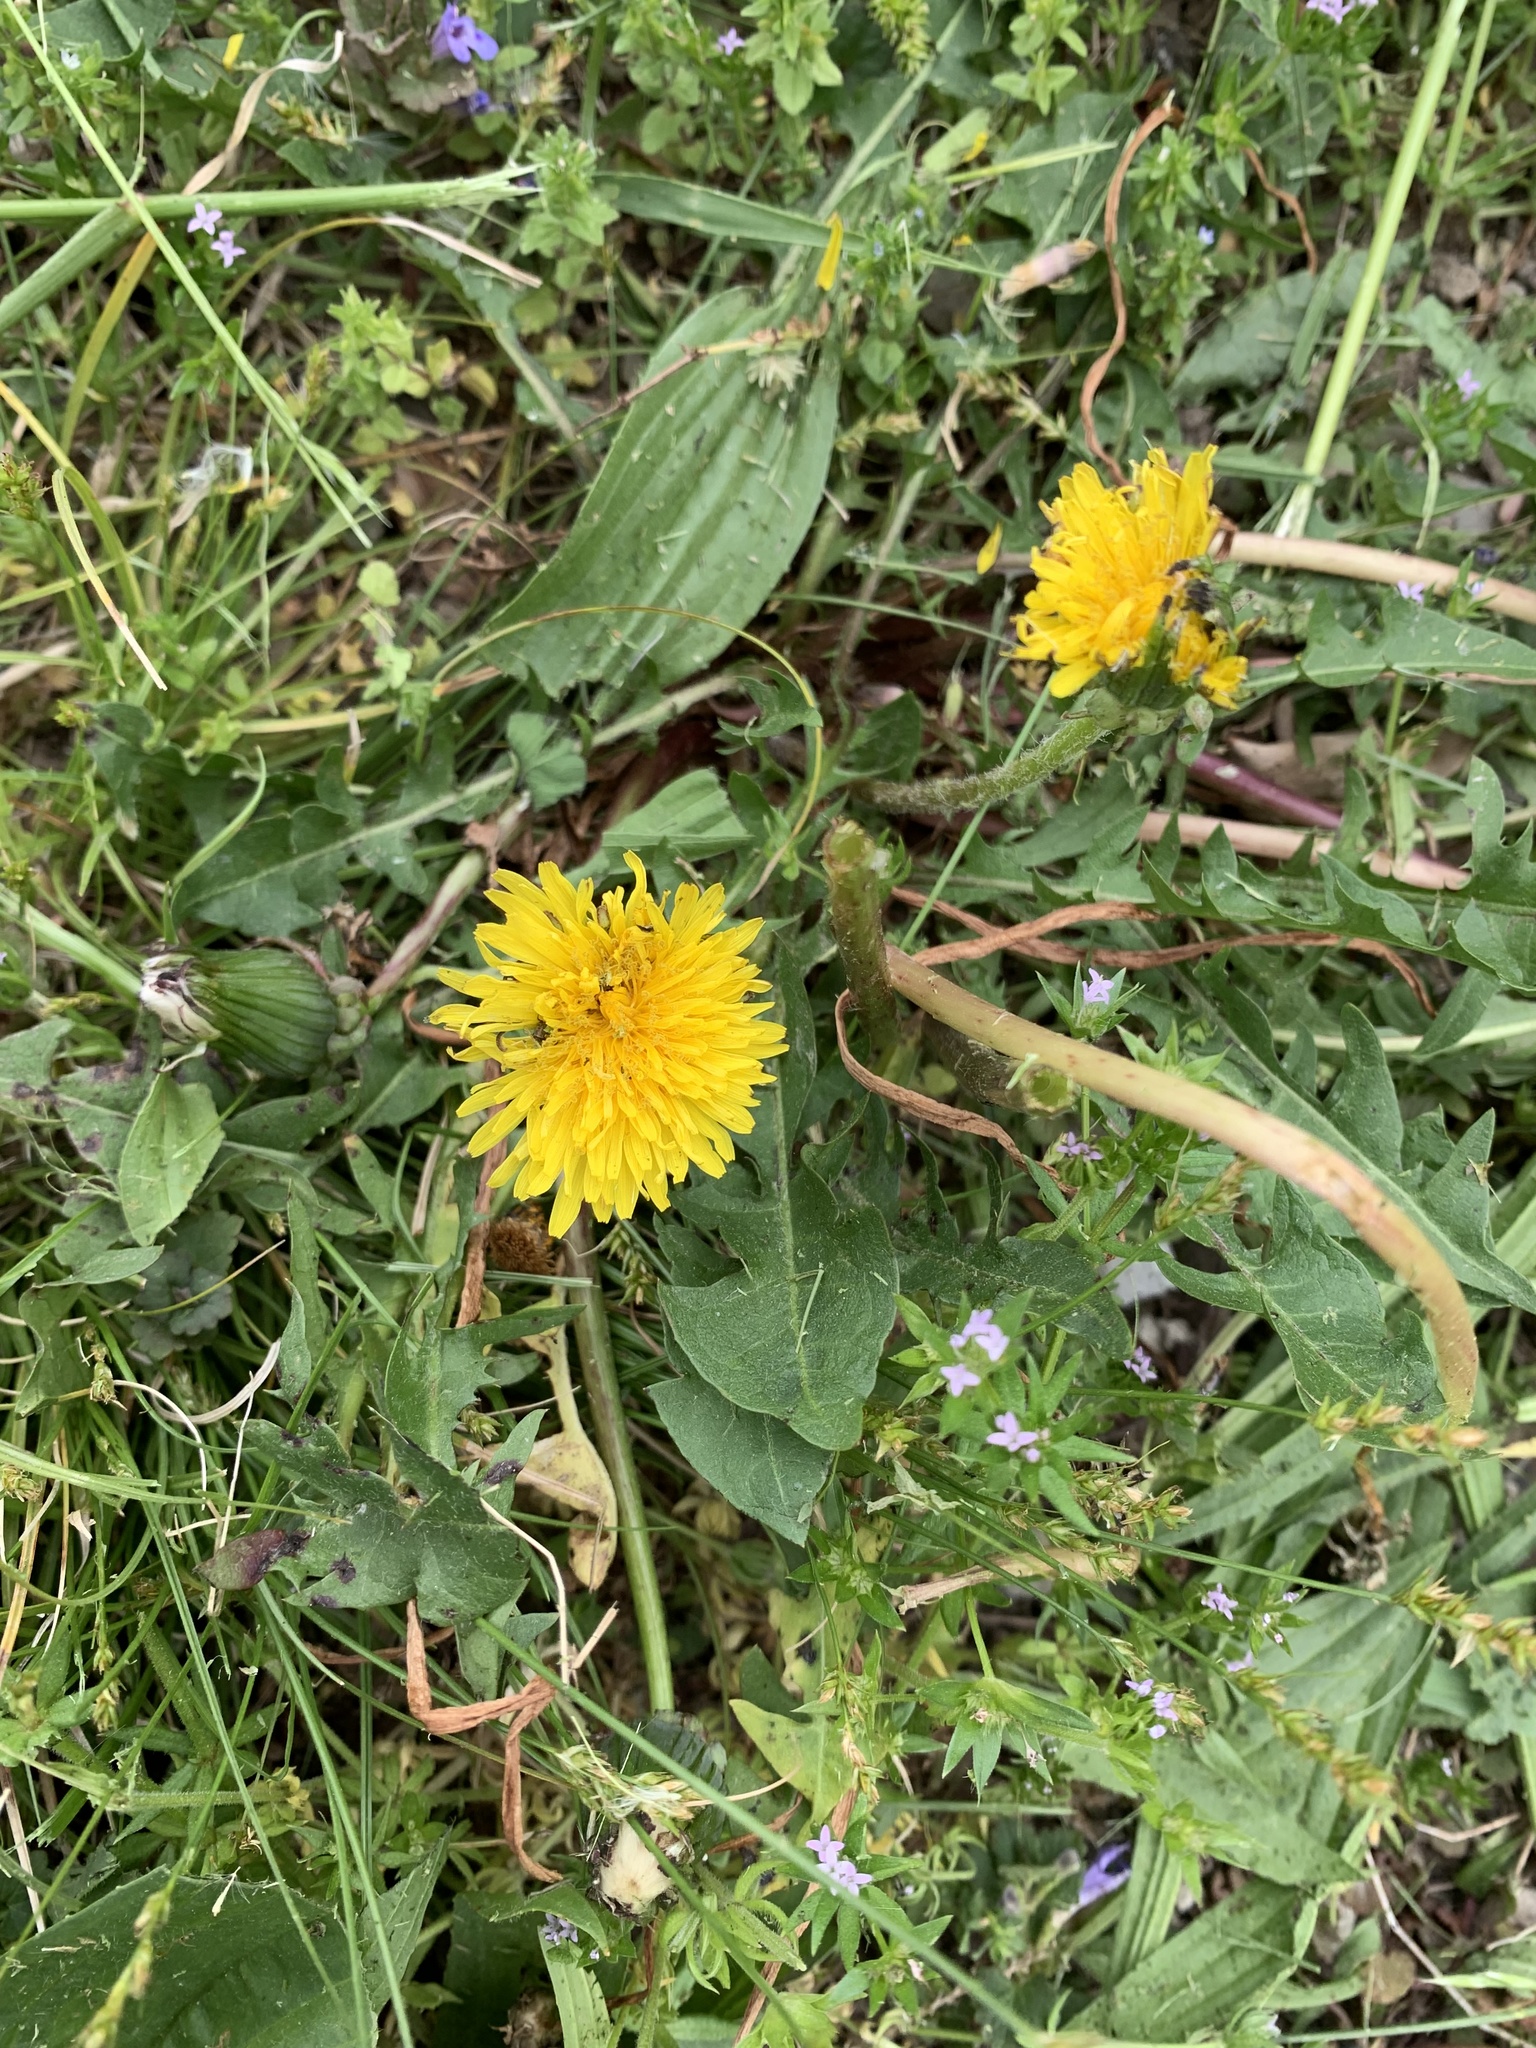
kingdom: Plantae
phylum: Tracheophyta
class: Magnoliopsida
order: Asterales
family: Asteraceae
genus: Taraxacum
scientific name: Taraxacum officinale
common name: Common dandelion
